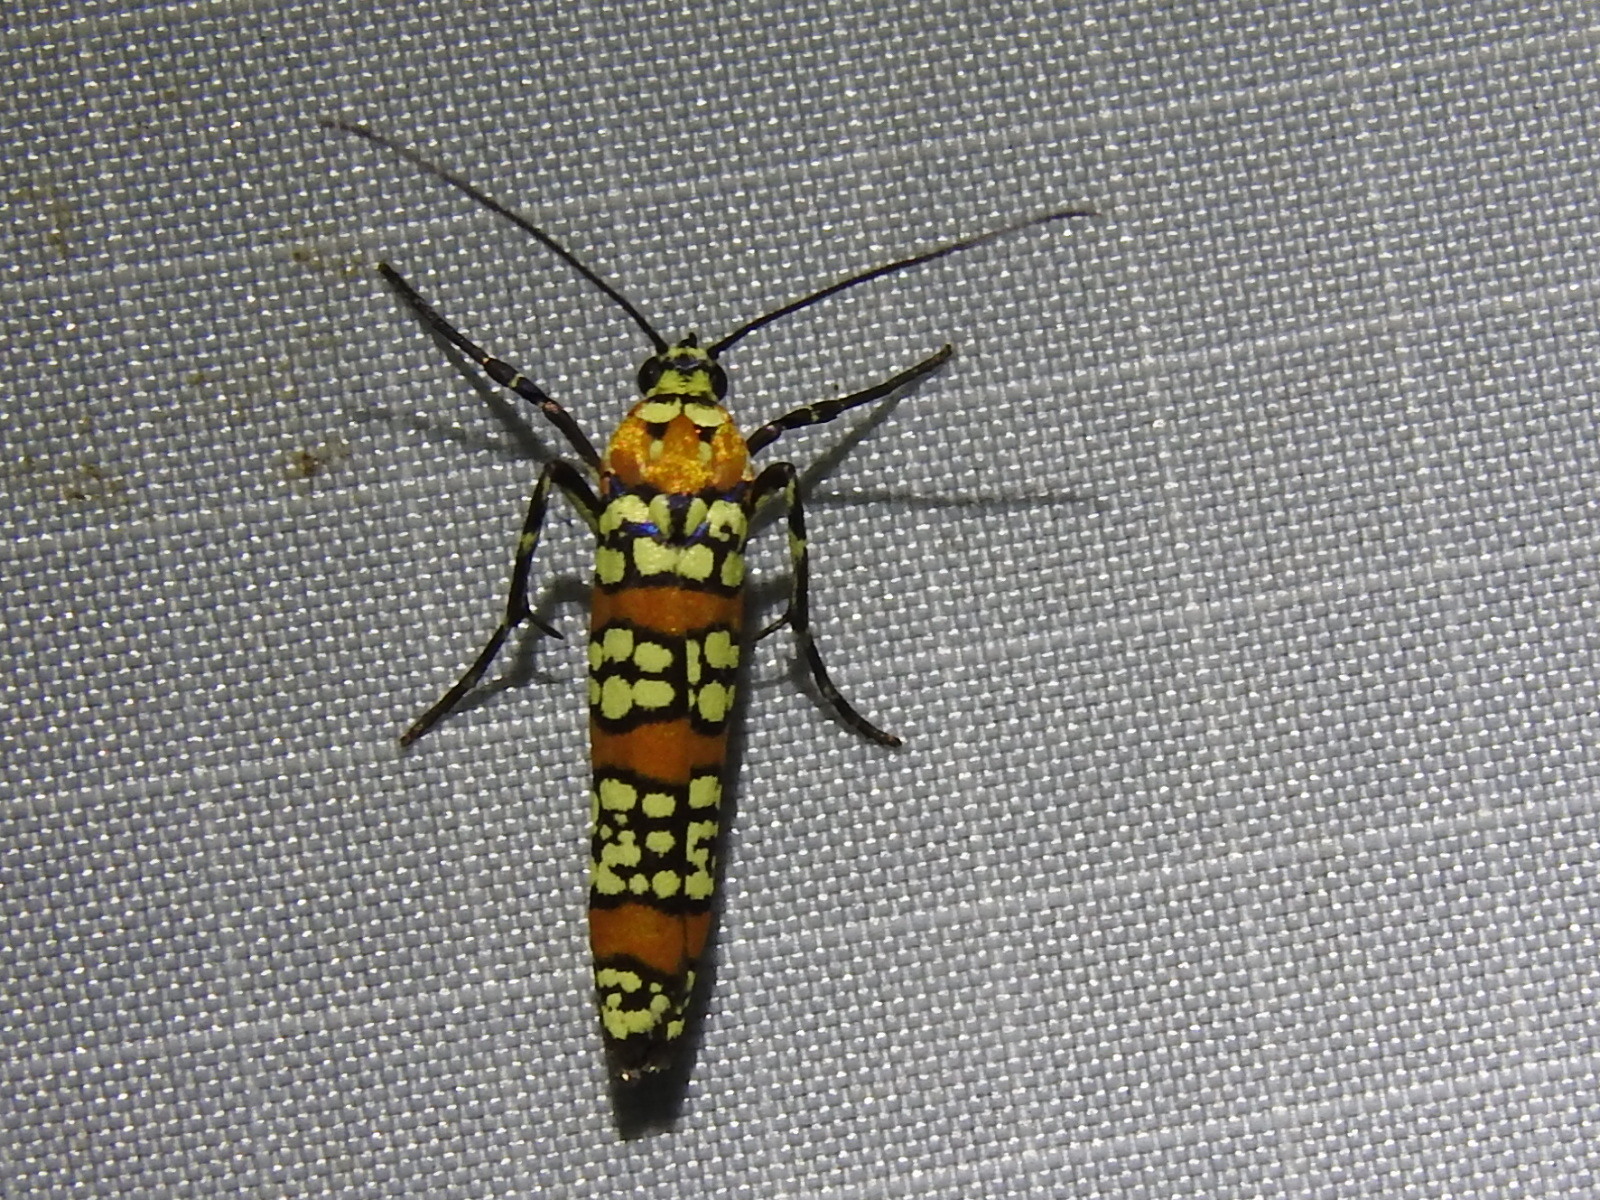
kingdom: Animalia
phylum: Arthropoda
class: Insecta
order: Lepidoptera
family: Attevidae
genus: Atteva
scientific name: Atteva punctella
